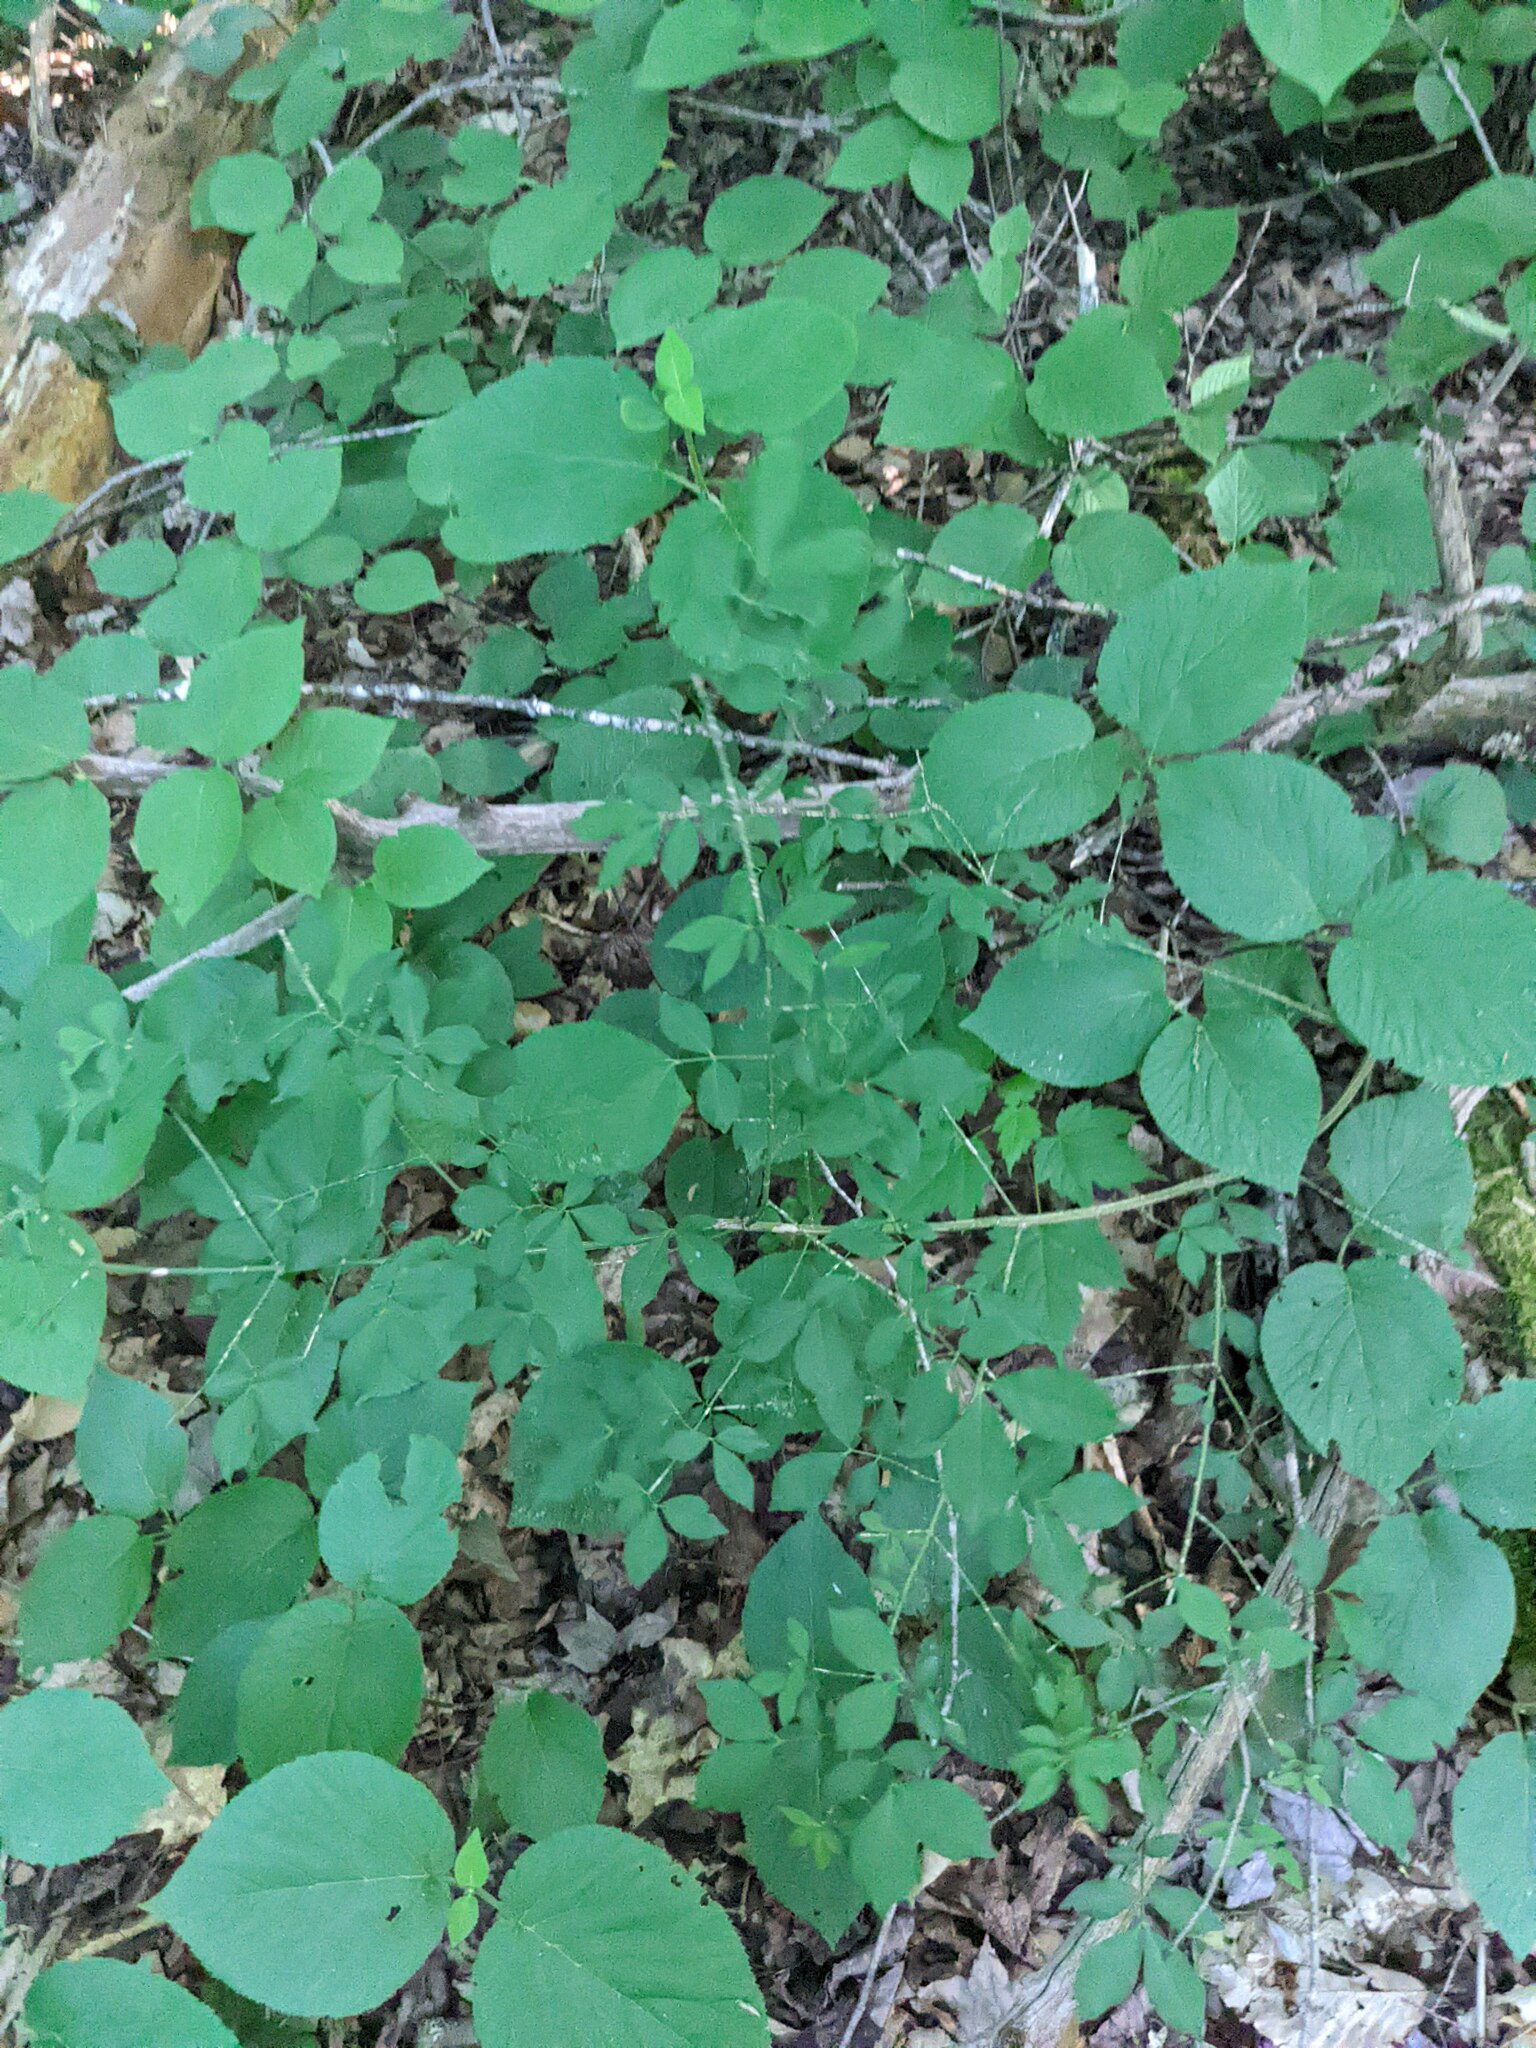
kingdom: Plantae
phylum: Tracheophyta
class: Magnoliopsida
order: Celastrales
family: Celastraceae
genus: Euonymus
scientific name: Euonymus alatus
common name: Winged euonymus
